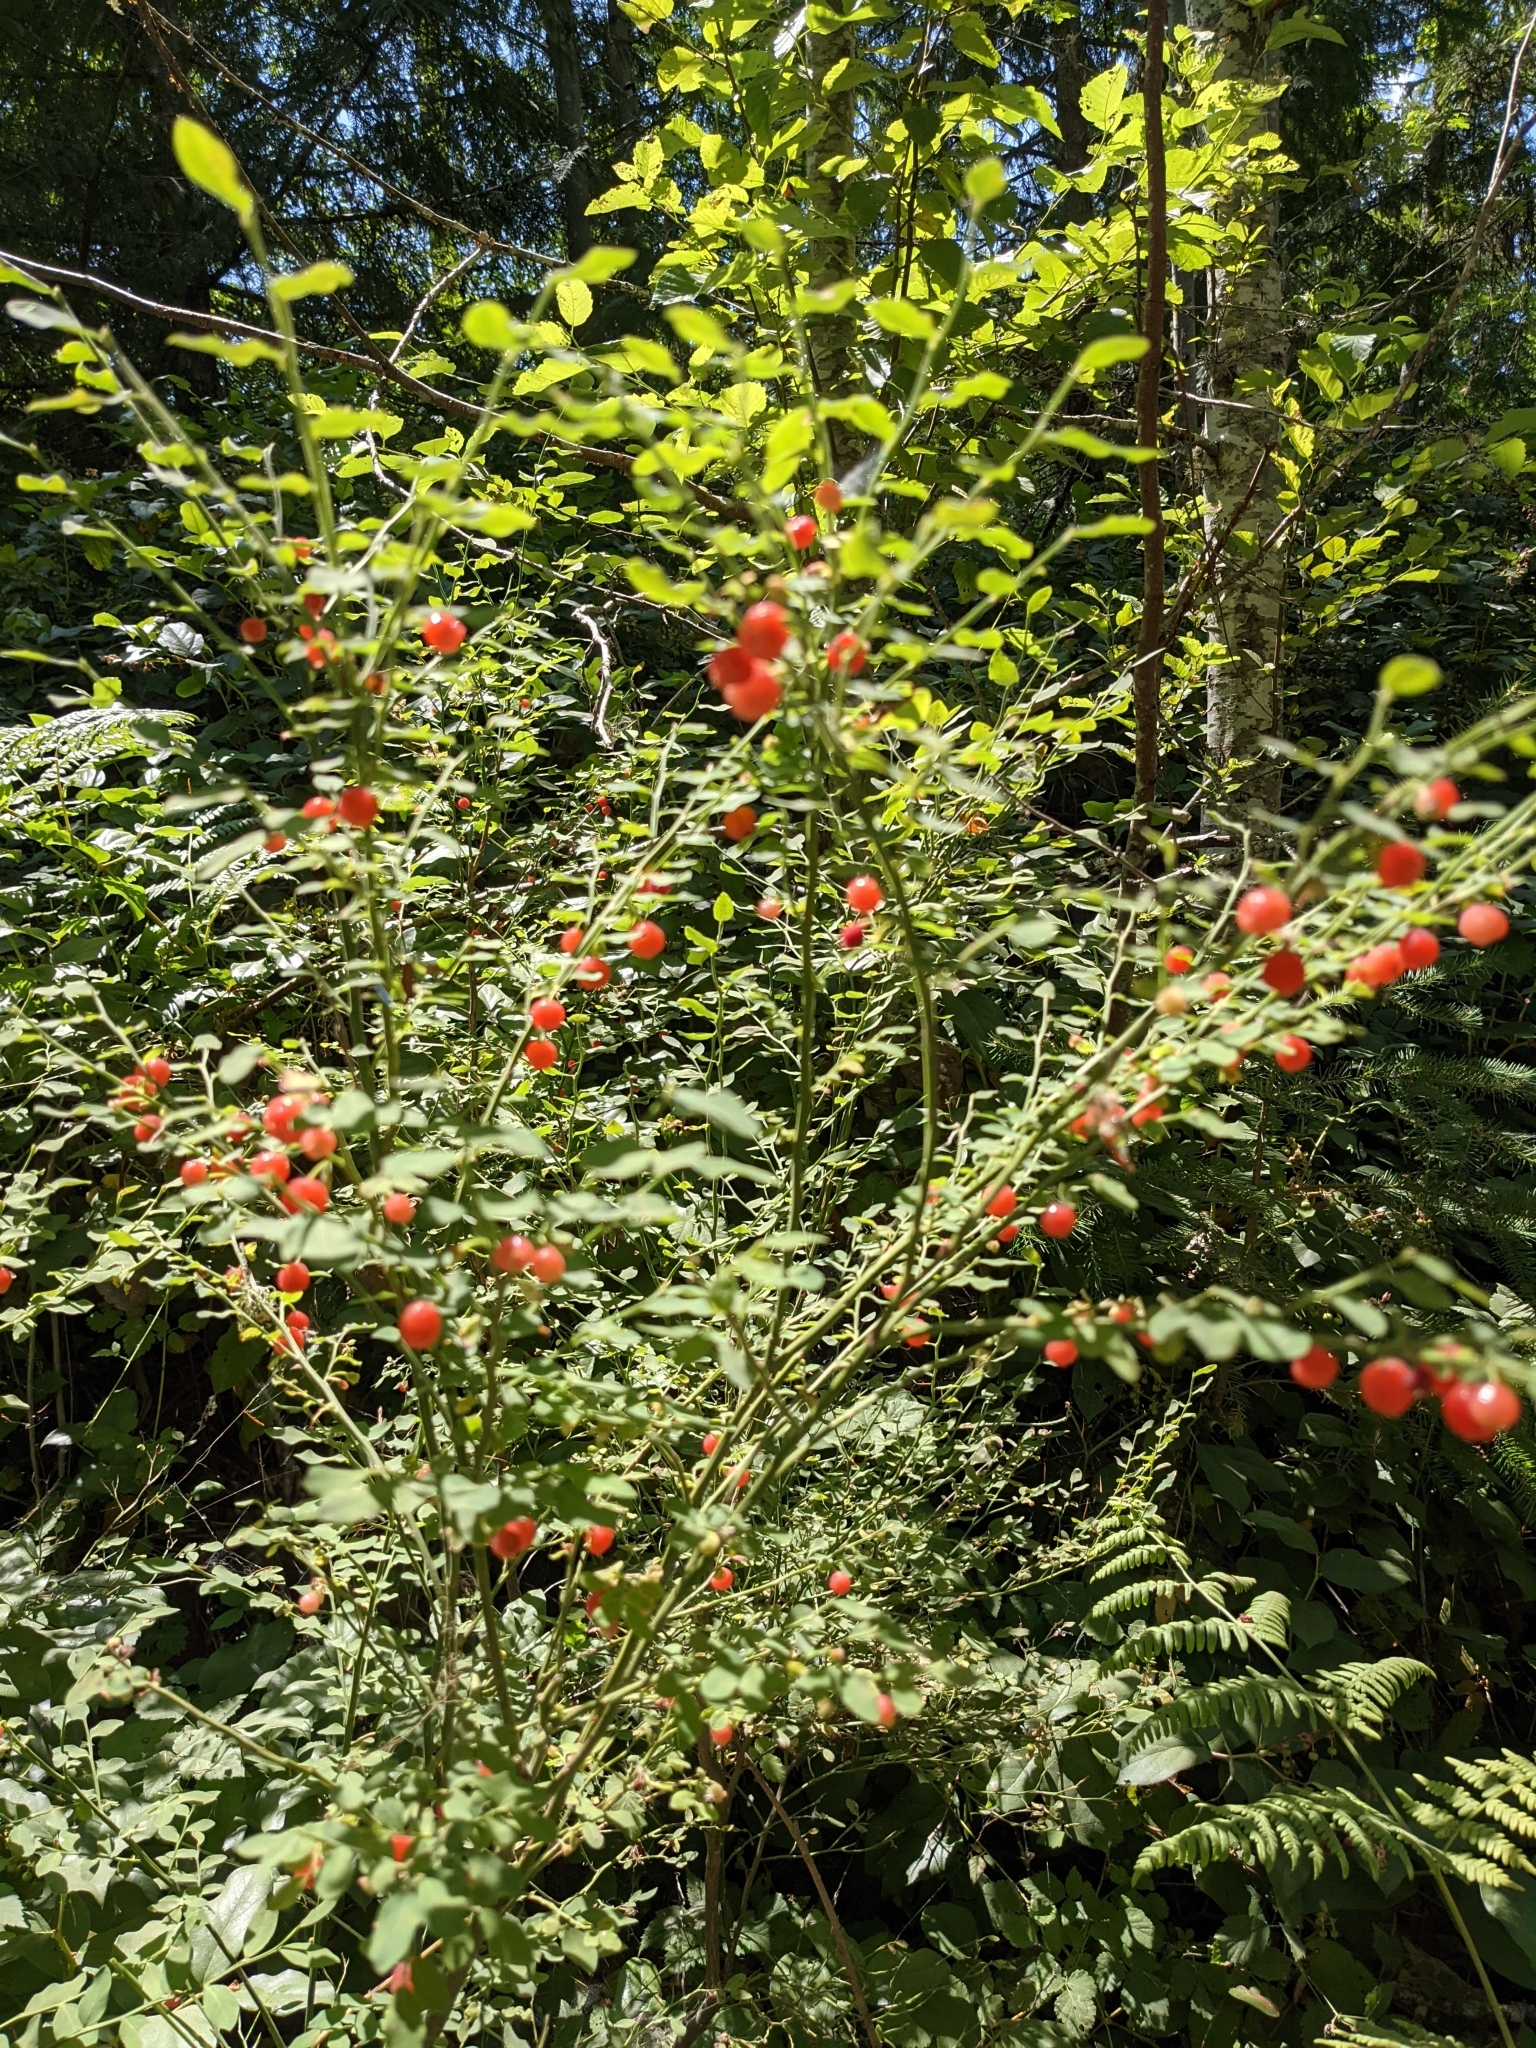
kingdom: Plantae
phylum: Tracheophyta
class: Magnoliopsida
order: Ericales
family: Ericaceae
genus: Vaccinium
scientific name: Vaccinium parvifolium
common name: Red-huckleberry
